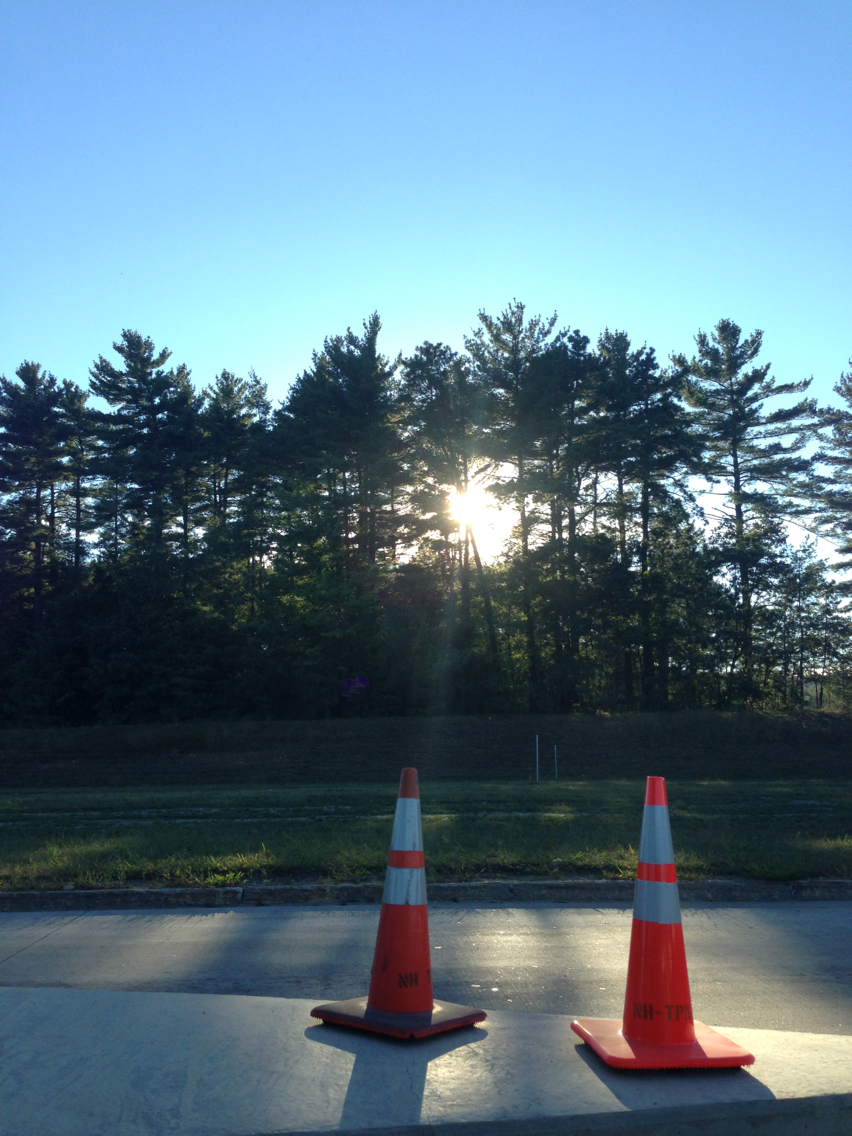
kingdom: Plantae
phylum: Tracheophyta
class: Pinopsida
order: Pinales
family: Pinaceae
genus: Pinus
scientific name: Pinus strobus
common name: Weymouth pine
